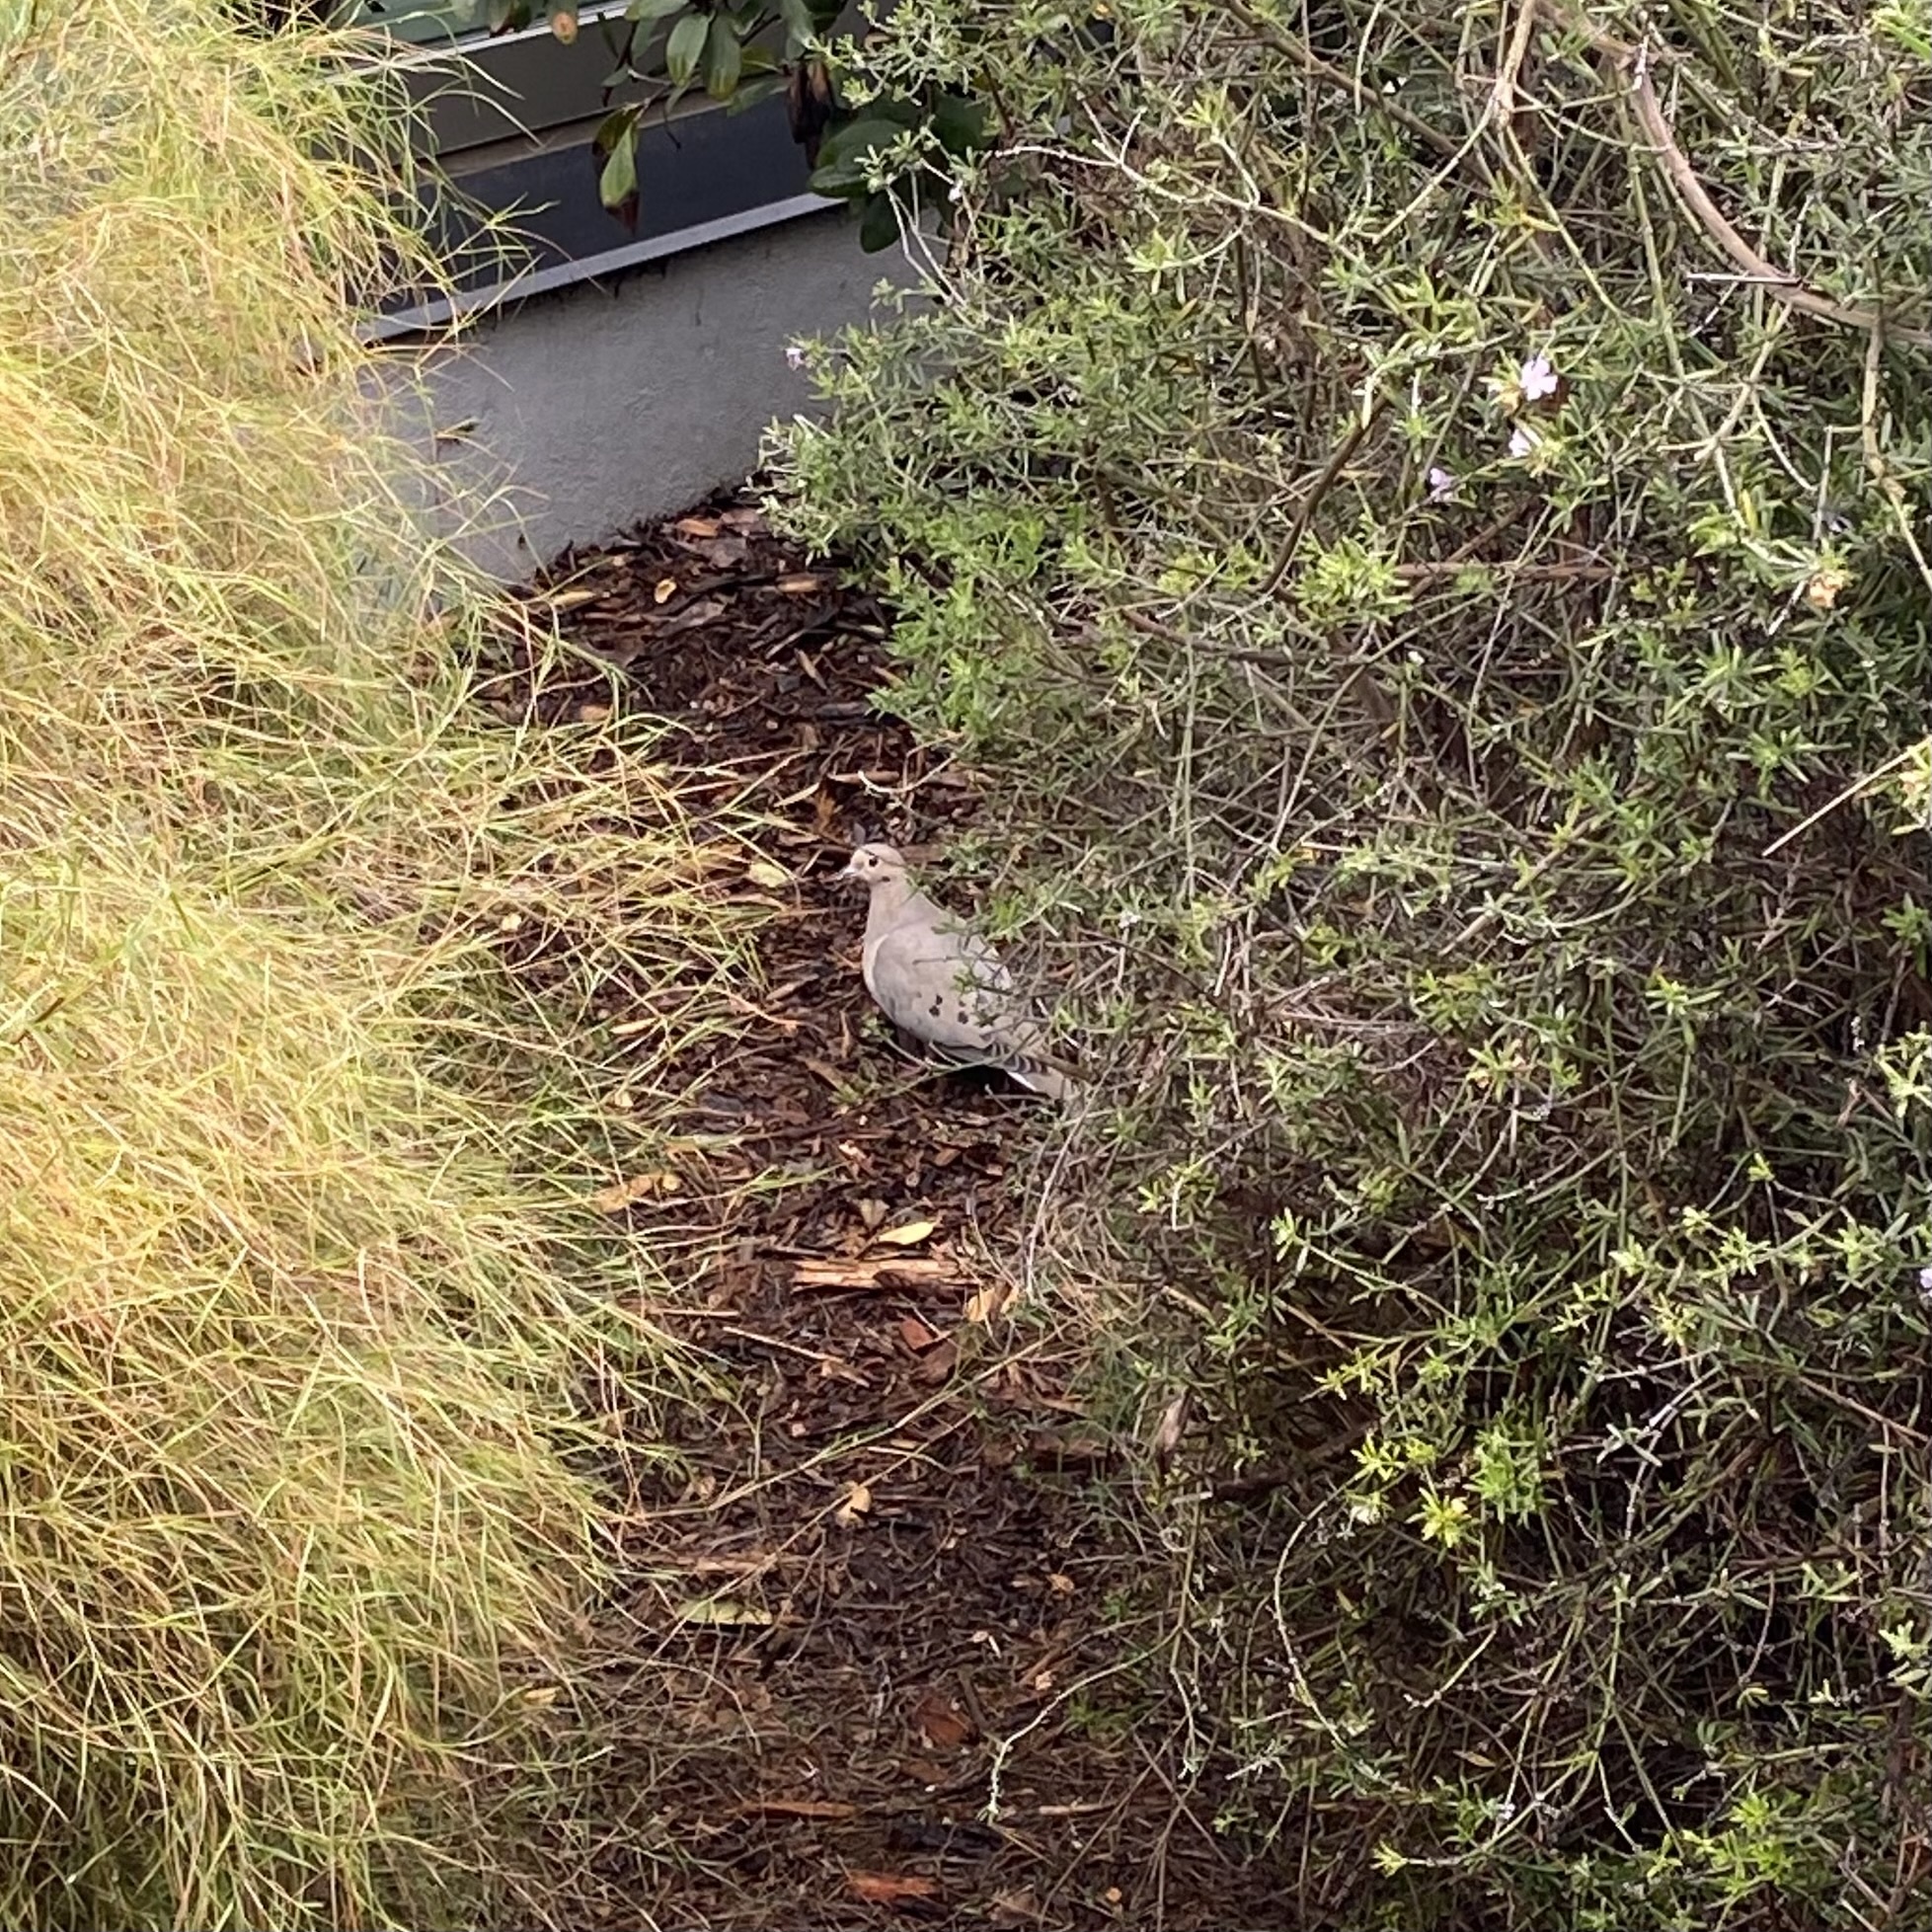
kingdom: Animalia
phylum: Chordata
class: Aves
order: Columbiformes
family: Columbidae
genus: Zenaida
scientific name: Zenaida macroura
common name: Mourning dove
